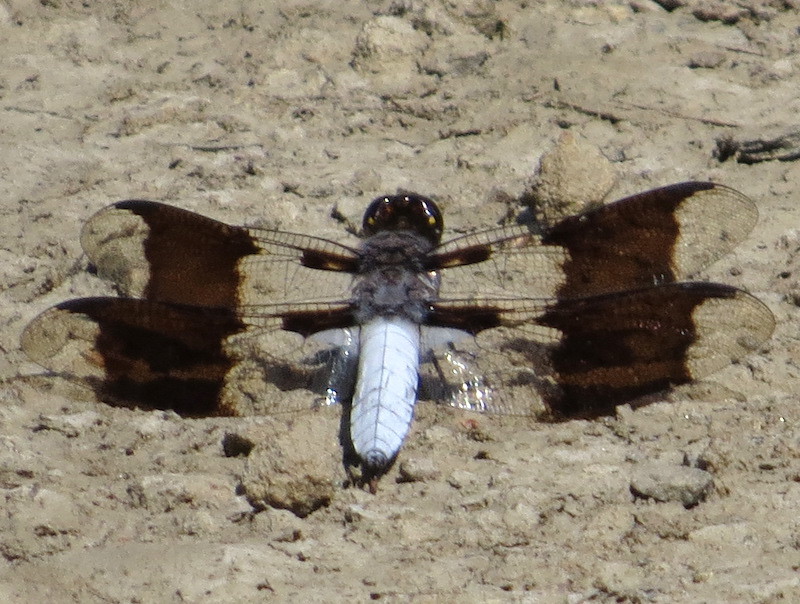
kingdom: Animalia
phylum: Arthropoda
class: Insecta
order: Odonata
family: Libellulidae
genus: Plathemis
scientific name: Plathemis lydia
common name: Common whitetail
